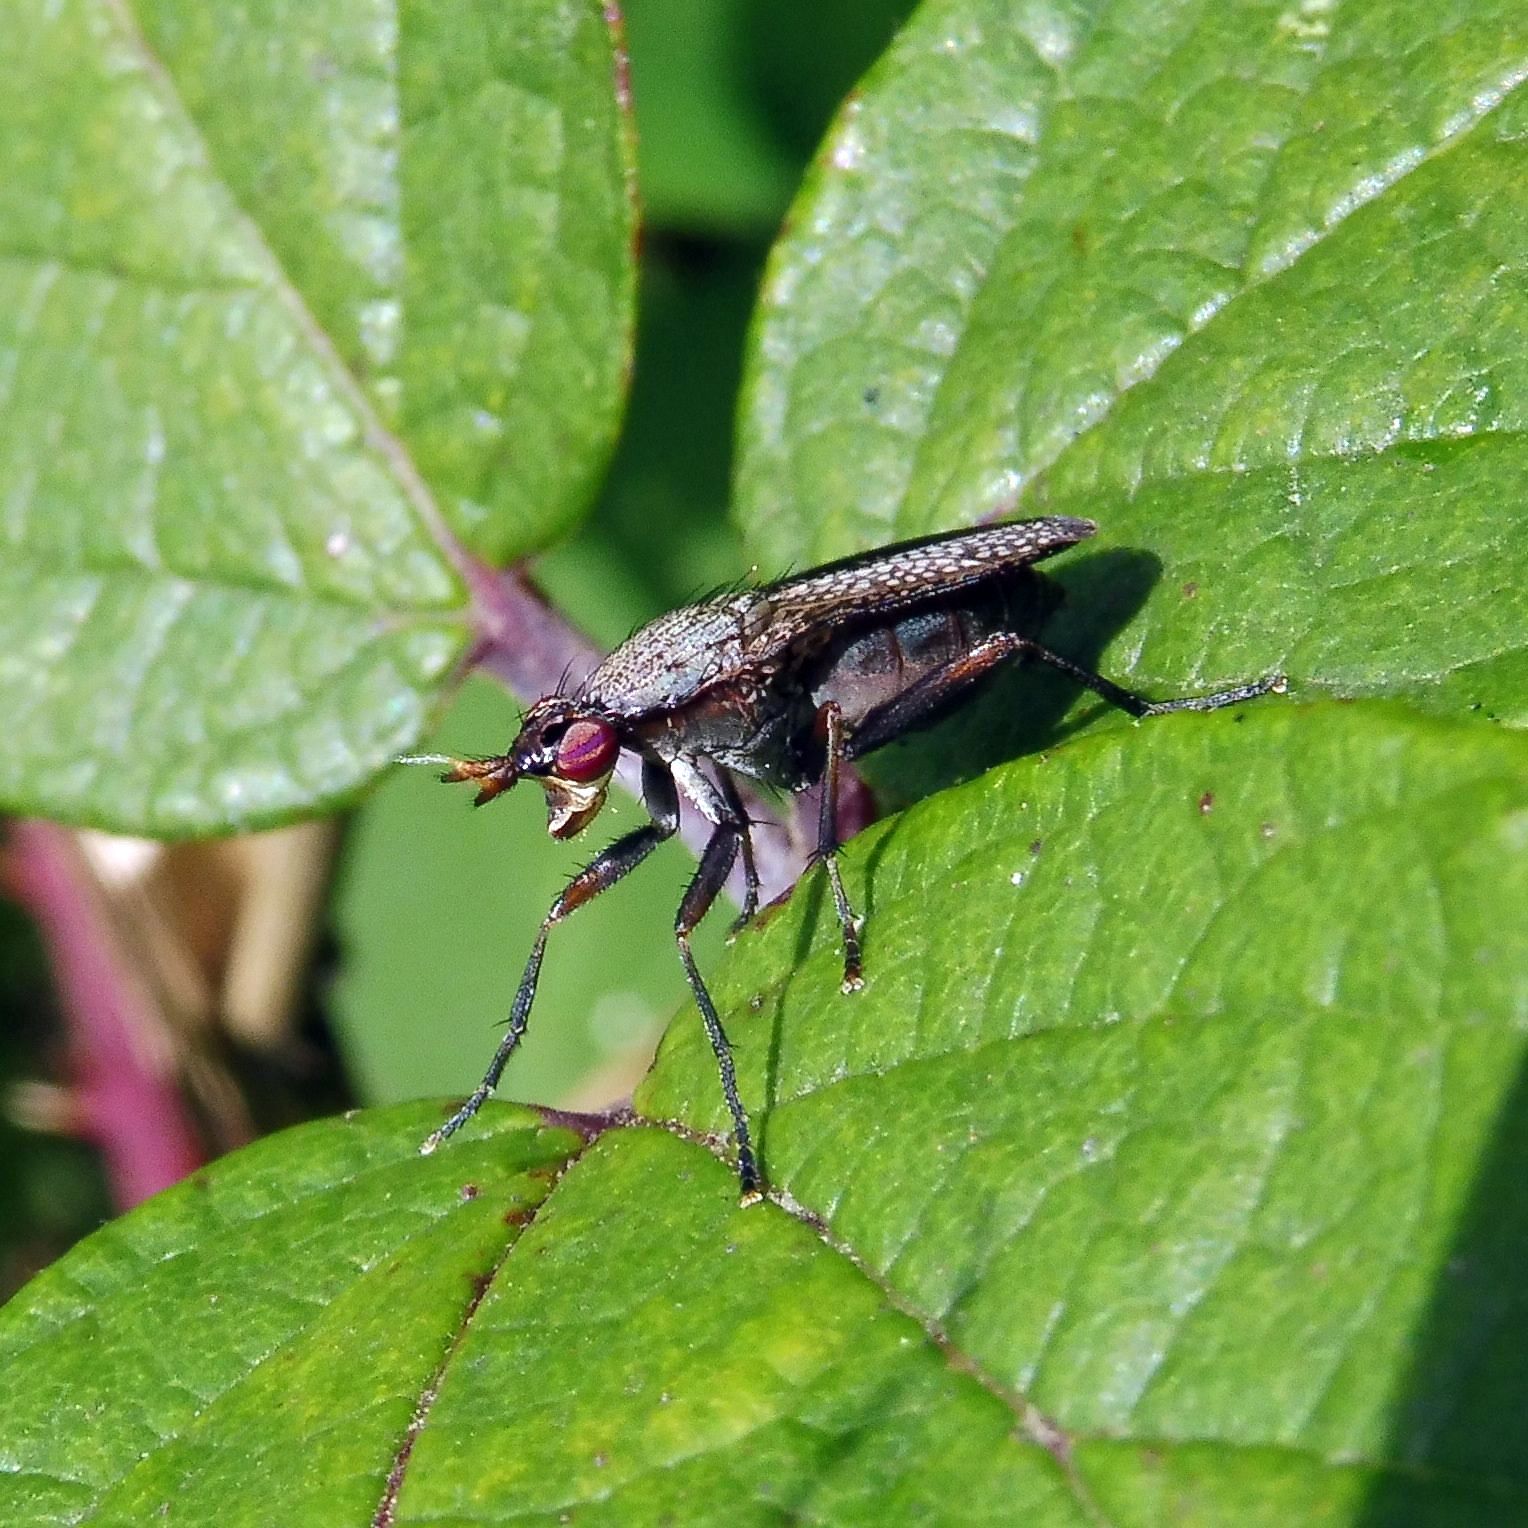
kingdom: Animalia
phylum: Arthropoda
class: Insecta
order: Diptera
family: Sciomyzidae
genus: Coremacera
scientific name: Coremacera marginata
